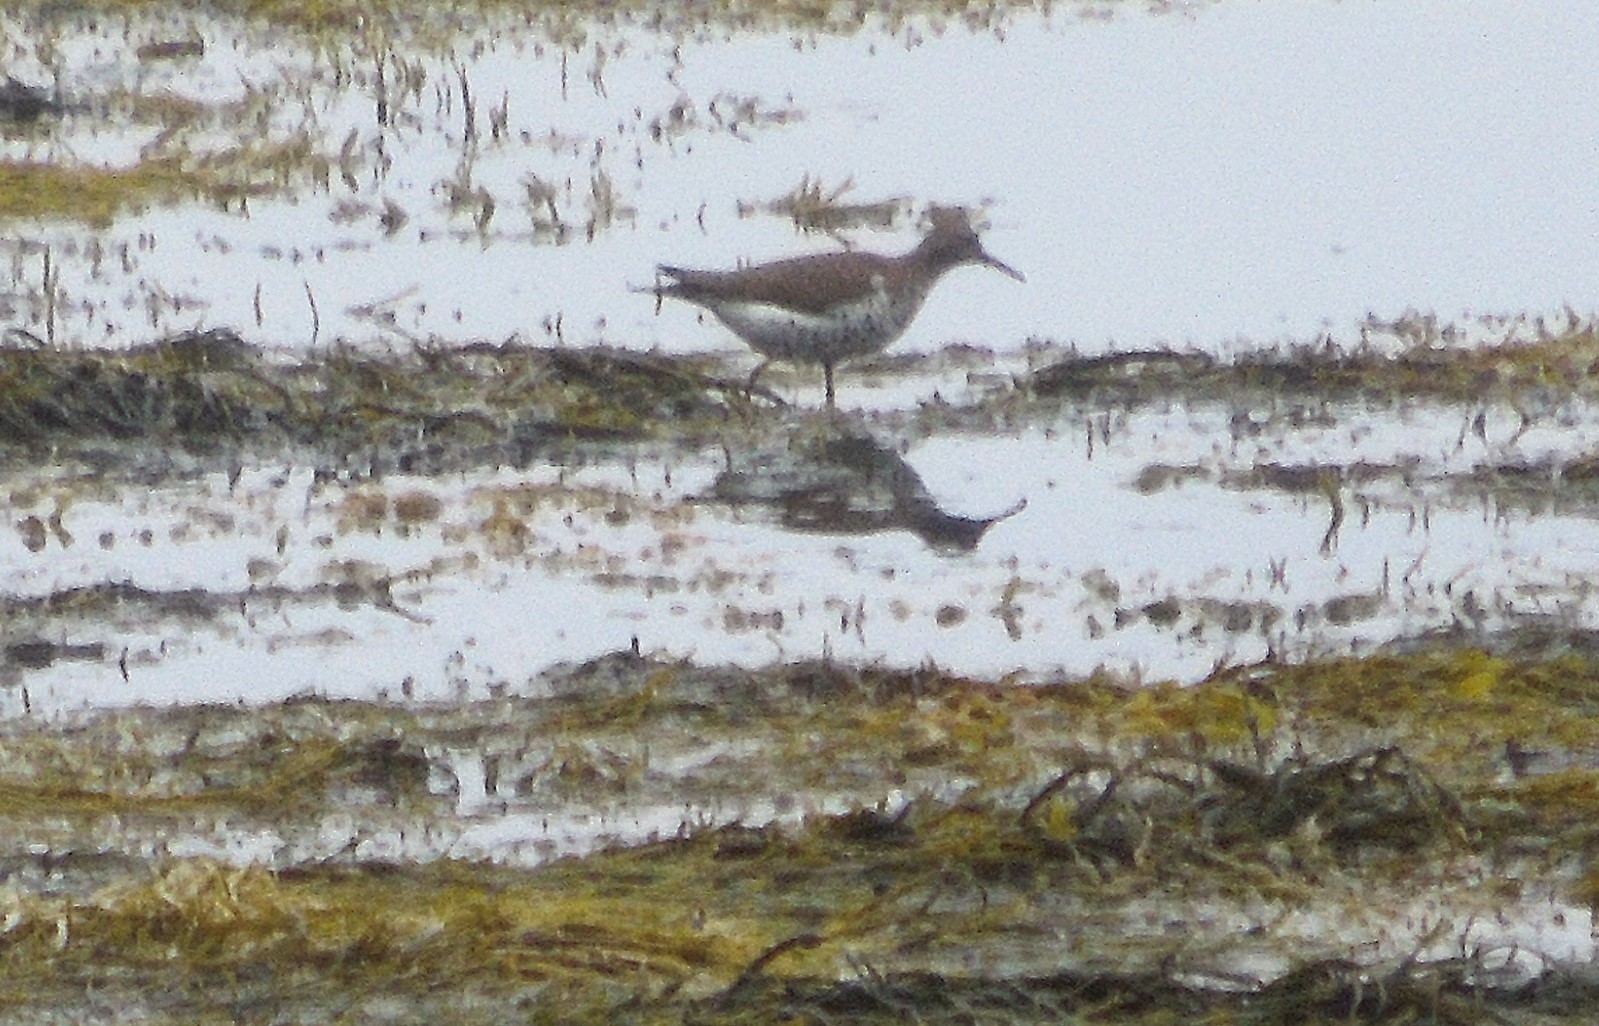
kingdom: Animalia
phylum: Chordata
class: Aves
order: Charadriiformes
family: Scolopacidae
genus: Actitis
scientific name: Actitis macularius
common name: Spotted sandpiper
